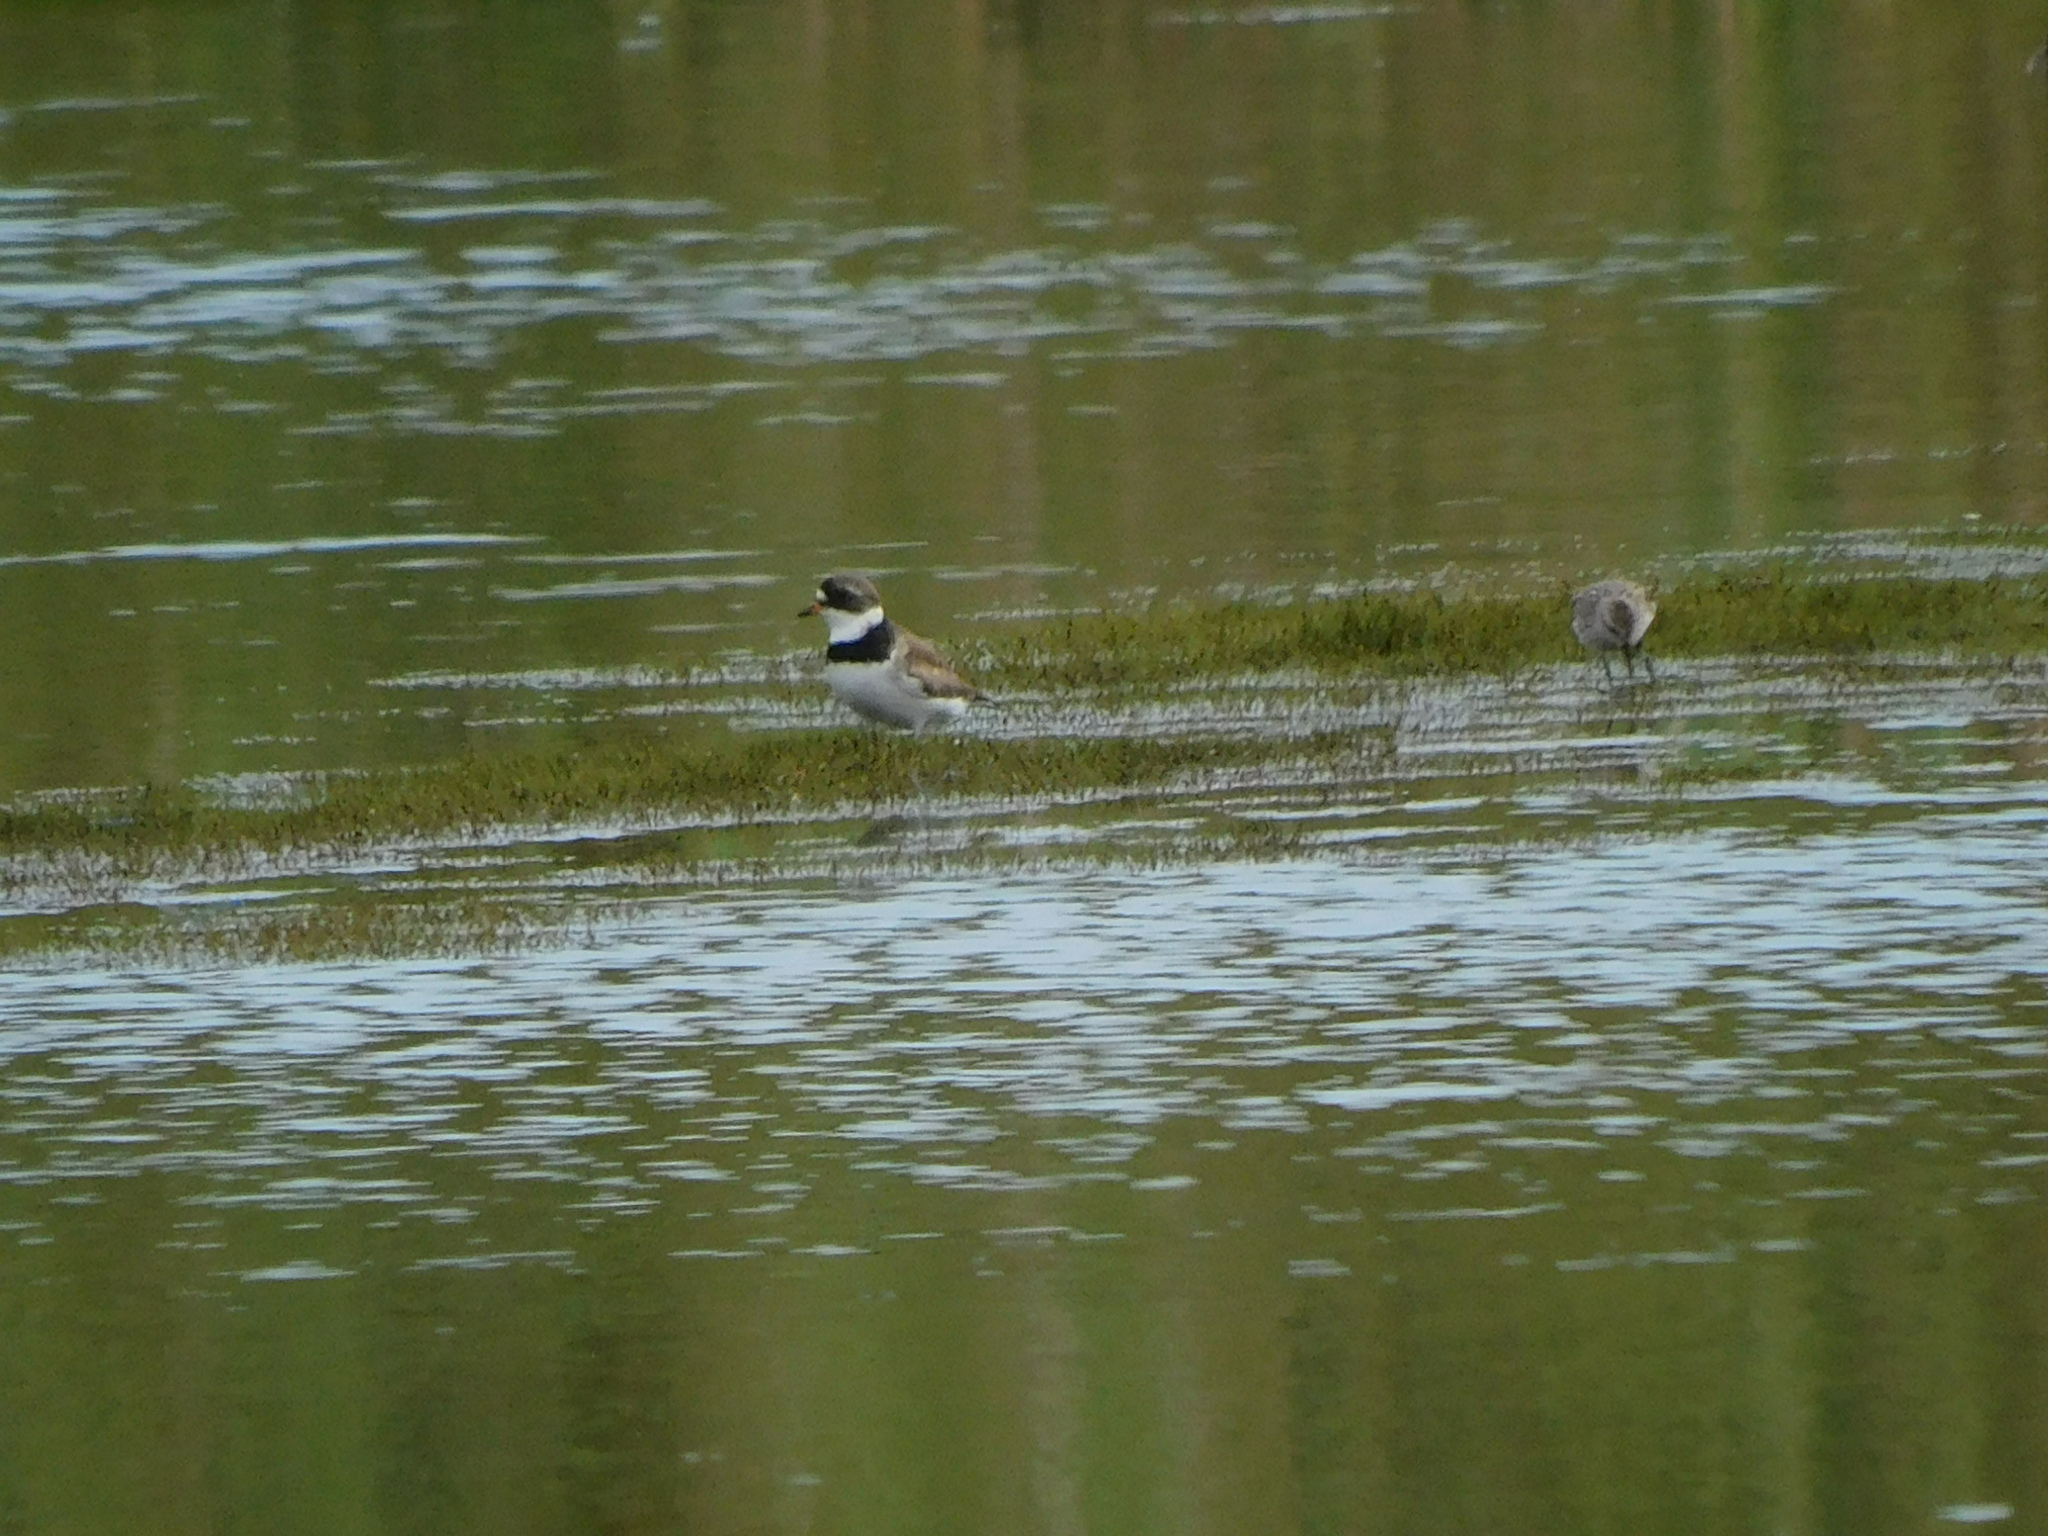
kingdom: Animalia
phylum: Chordata
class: Aves
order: Charadriiformes
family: Charadriidae
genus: Charadrius
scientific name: Charadrius semipalmatus
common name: Semipalmated plover
